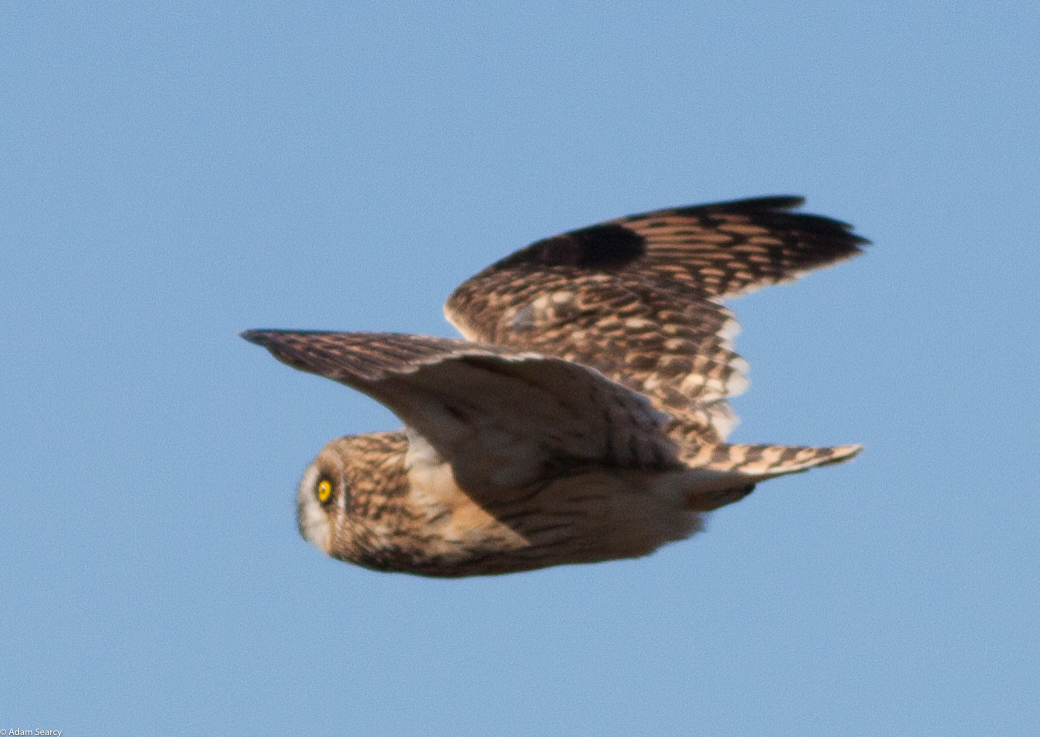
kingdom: Animalia
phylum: Chordata
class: Aves
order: Strigiformes
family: Strigidae
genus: Asio
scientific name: Asio flammeus
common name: Short-eared owl
